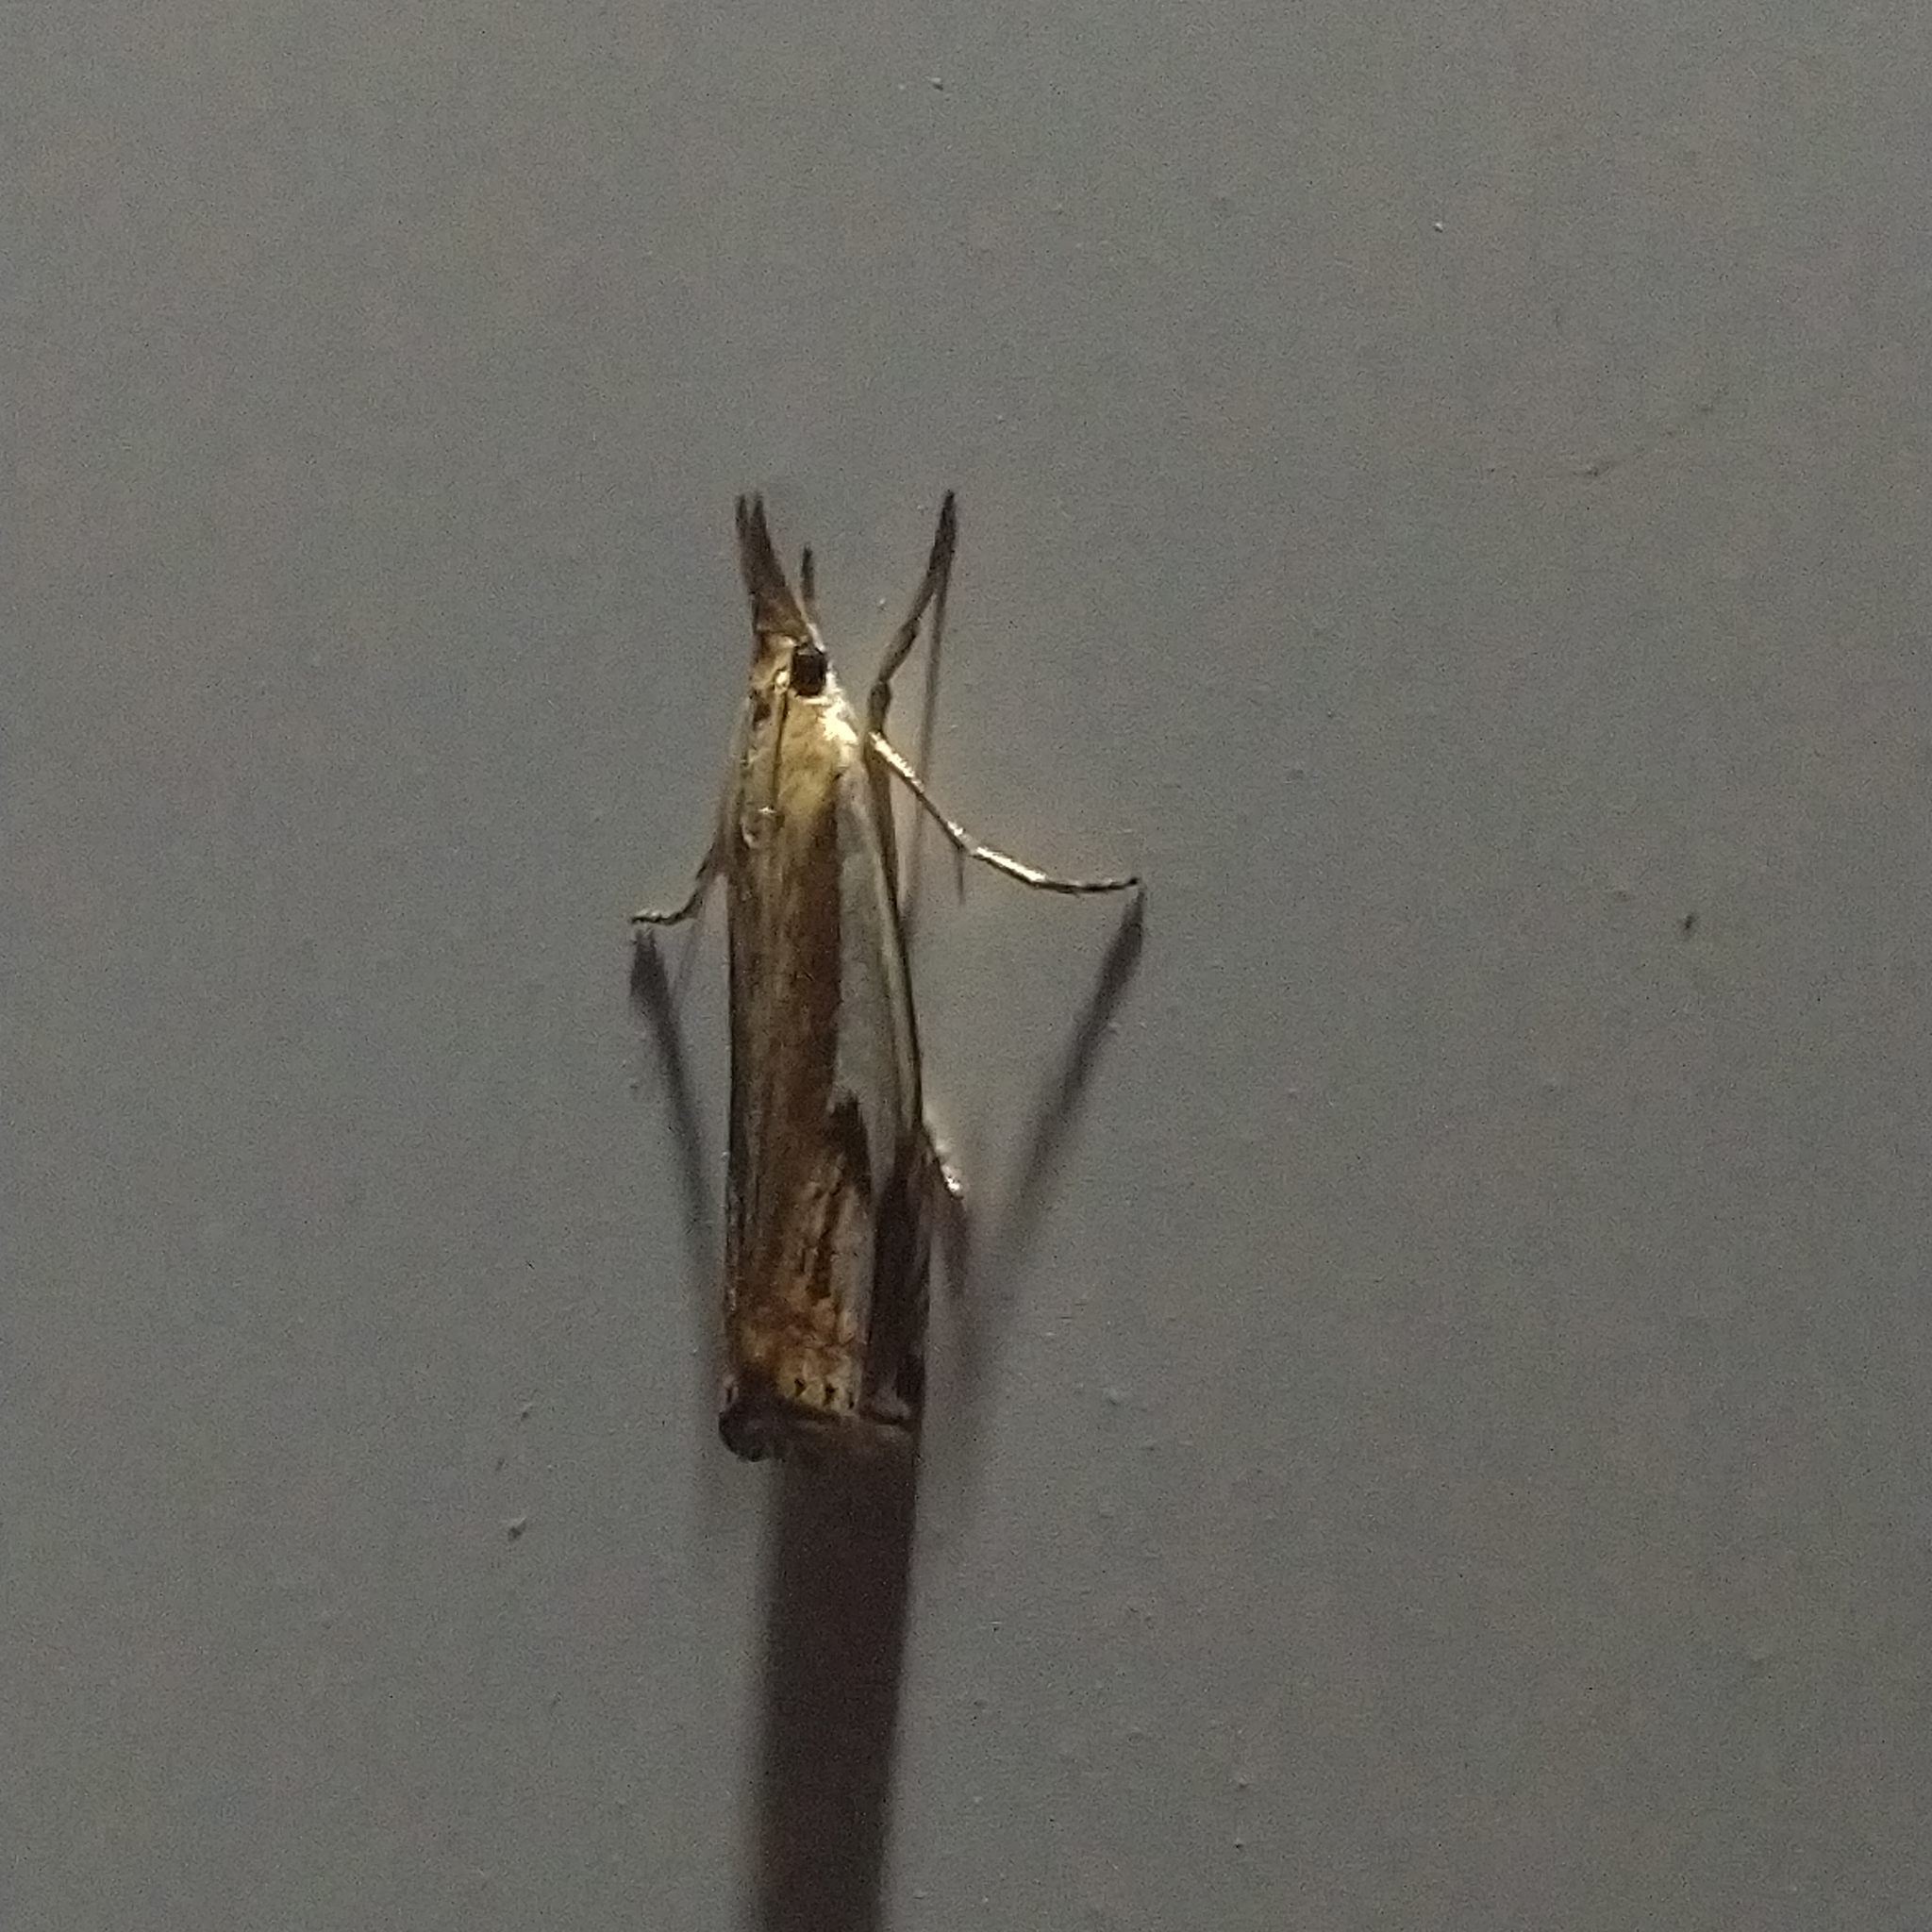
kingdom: Animalia
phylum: Arthropoda
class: Insecta
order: Lepidoptera
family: Crambidae
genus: Crambus
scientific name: Crambus agitatellus
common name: Double-banded grass-veneer
